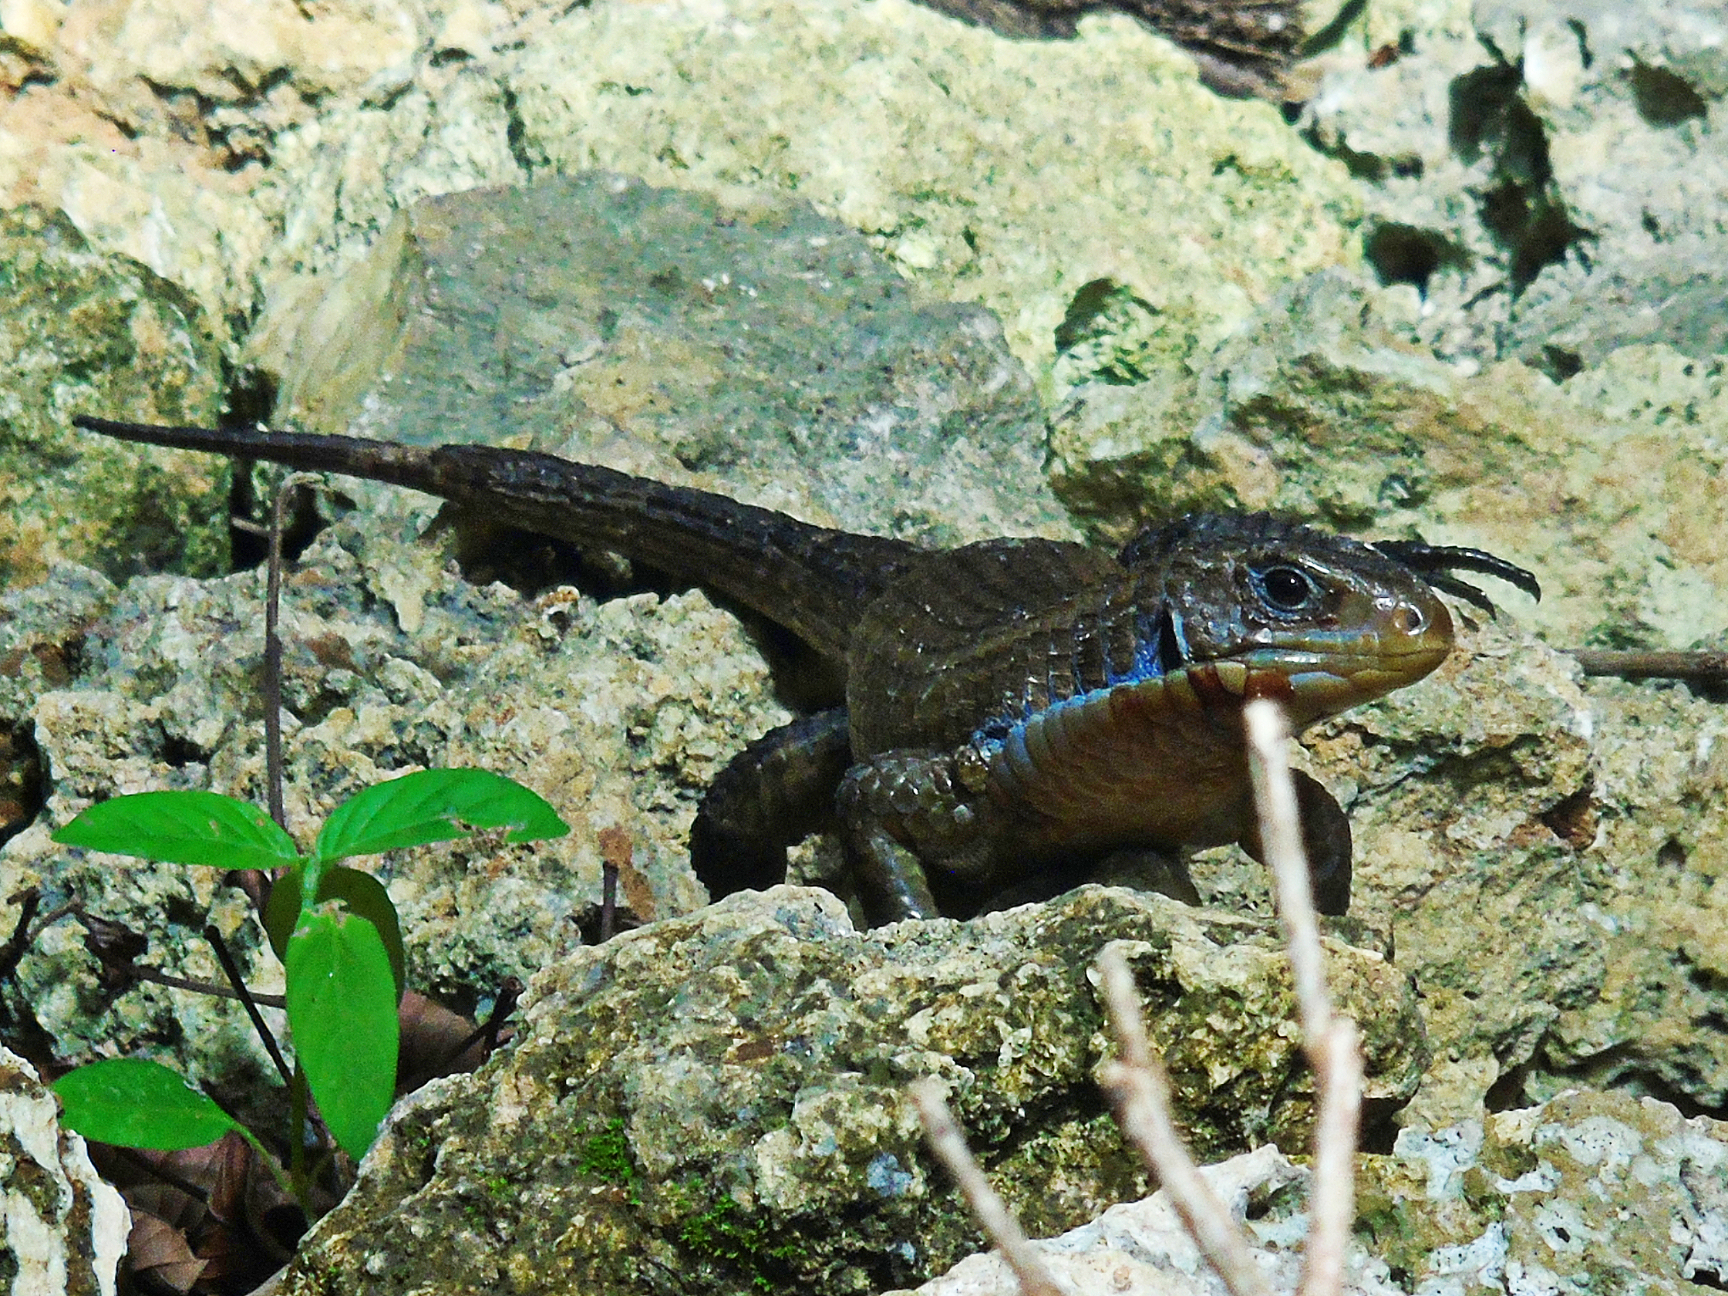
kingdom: Animalia
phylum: Chordata
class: Squamata
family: Gerrhosauridae
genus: Broadleysaurus
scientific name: Broadleysaurus major
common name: Rough-scaled plated lizard
